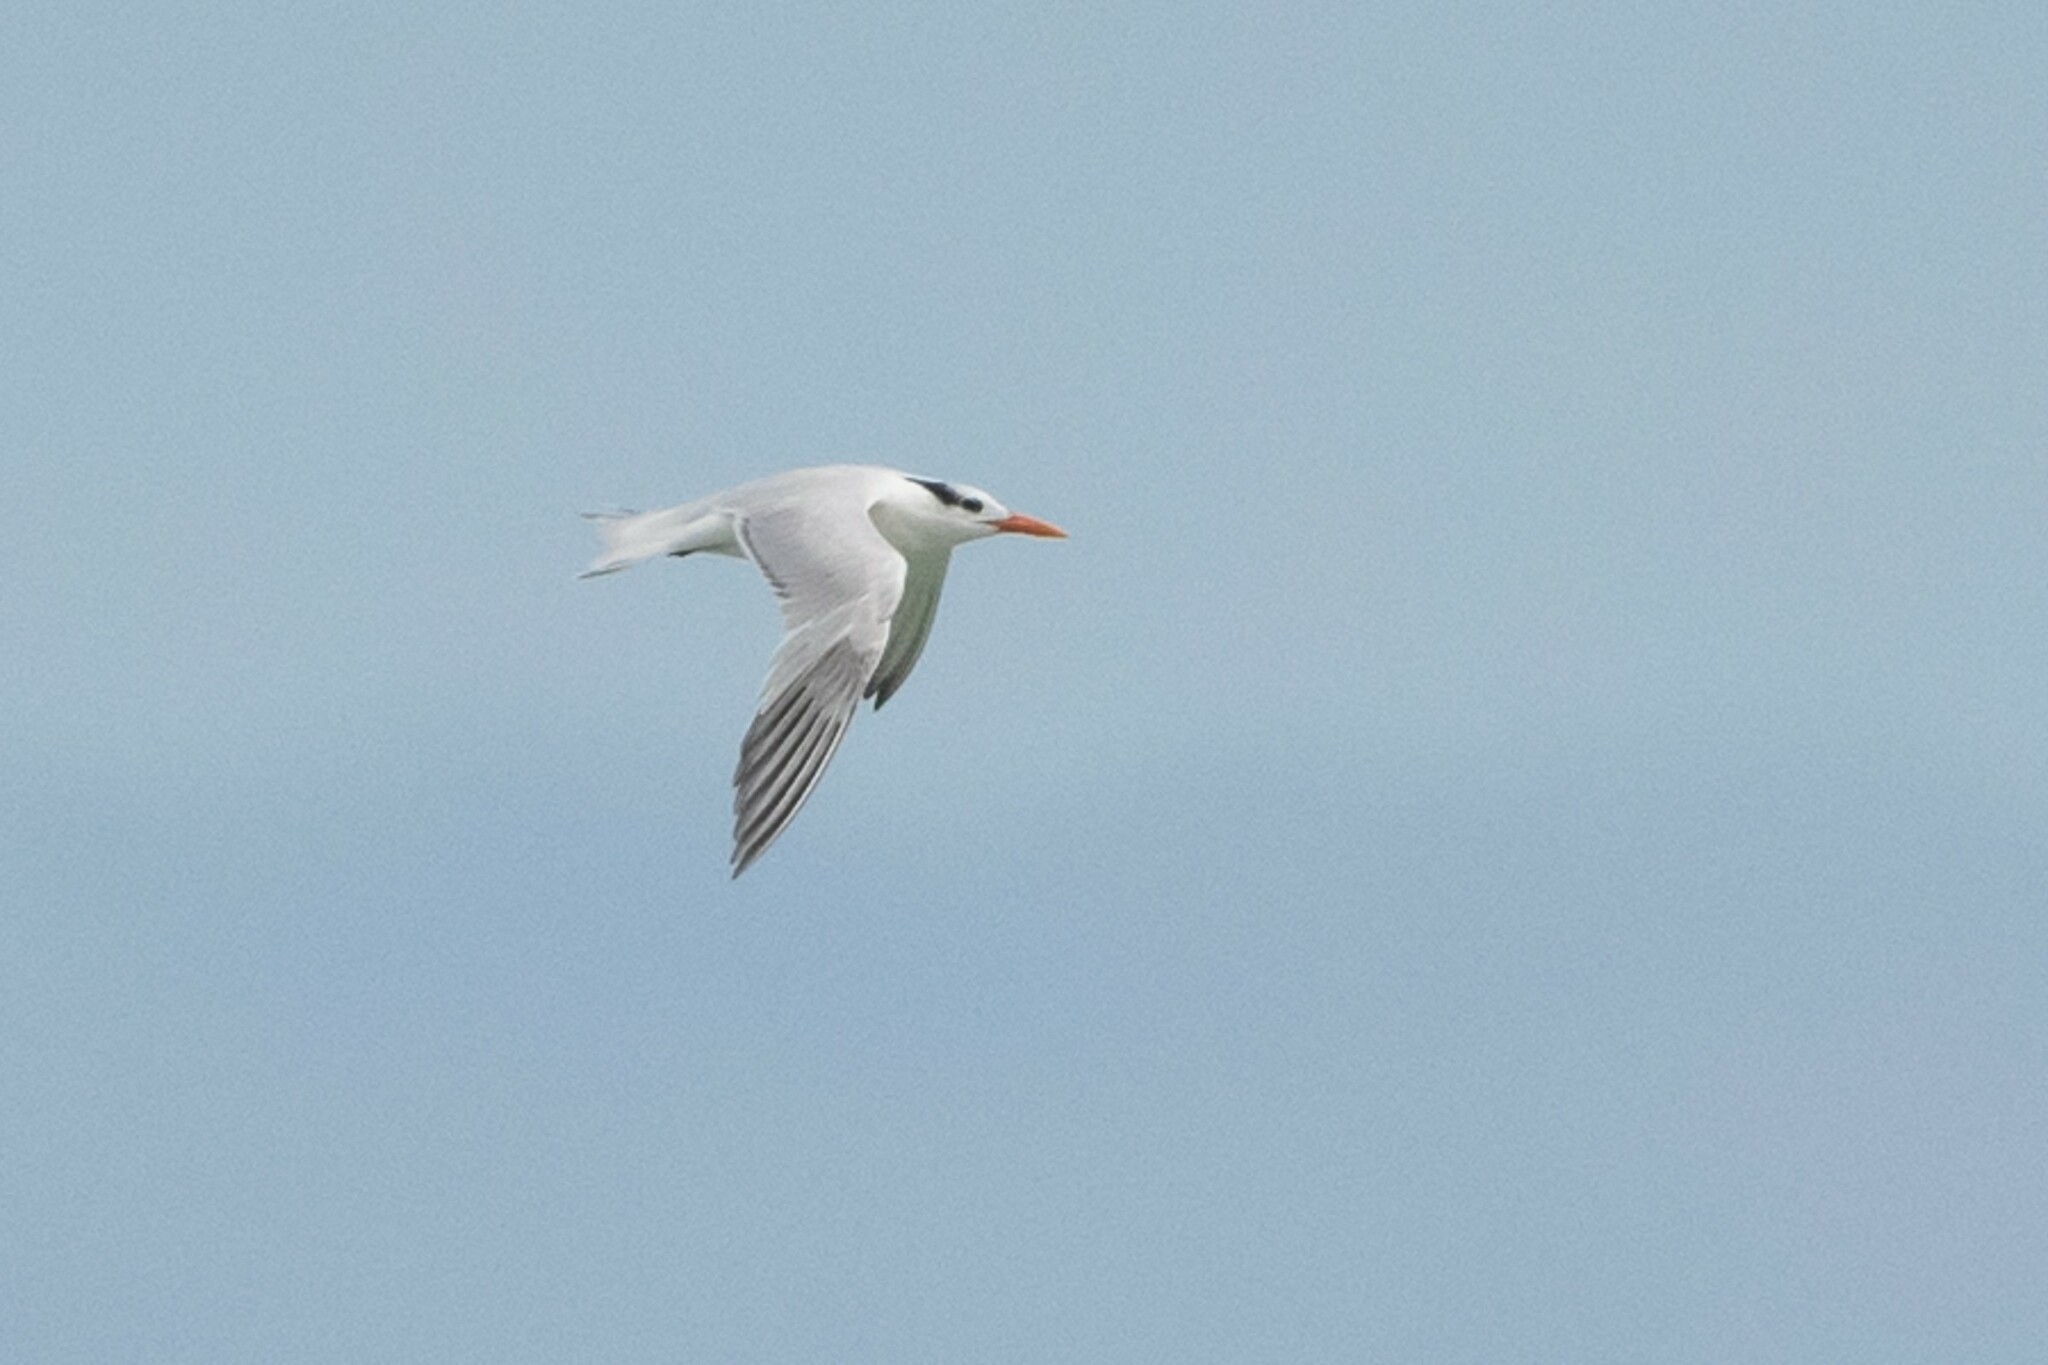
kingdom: Animalia
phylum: Chordata
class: Aves
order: Charadriiformes
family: Laridae
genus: Thalasseus
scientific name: Thalasseus maximus
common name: Royal tern
